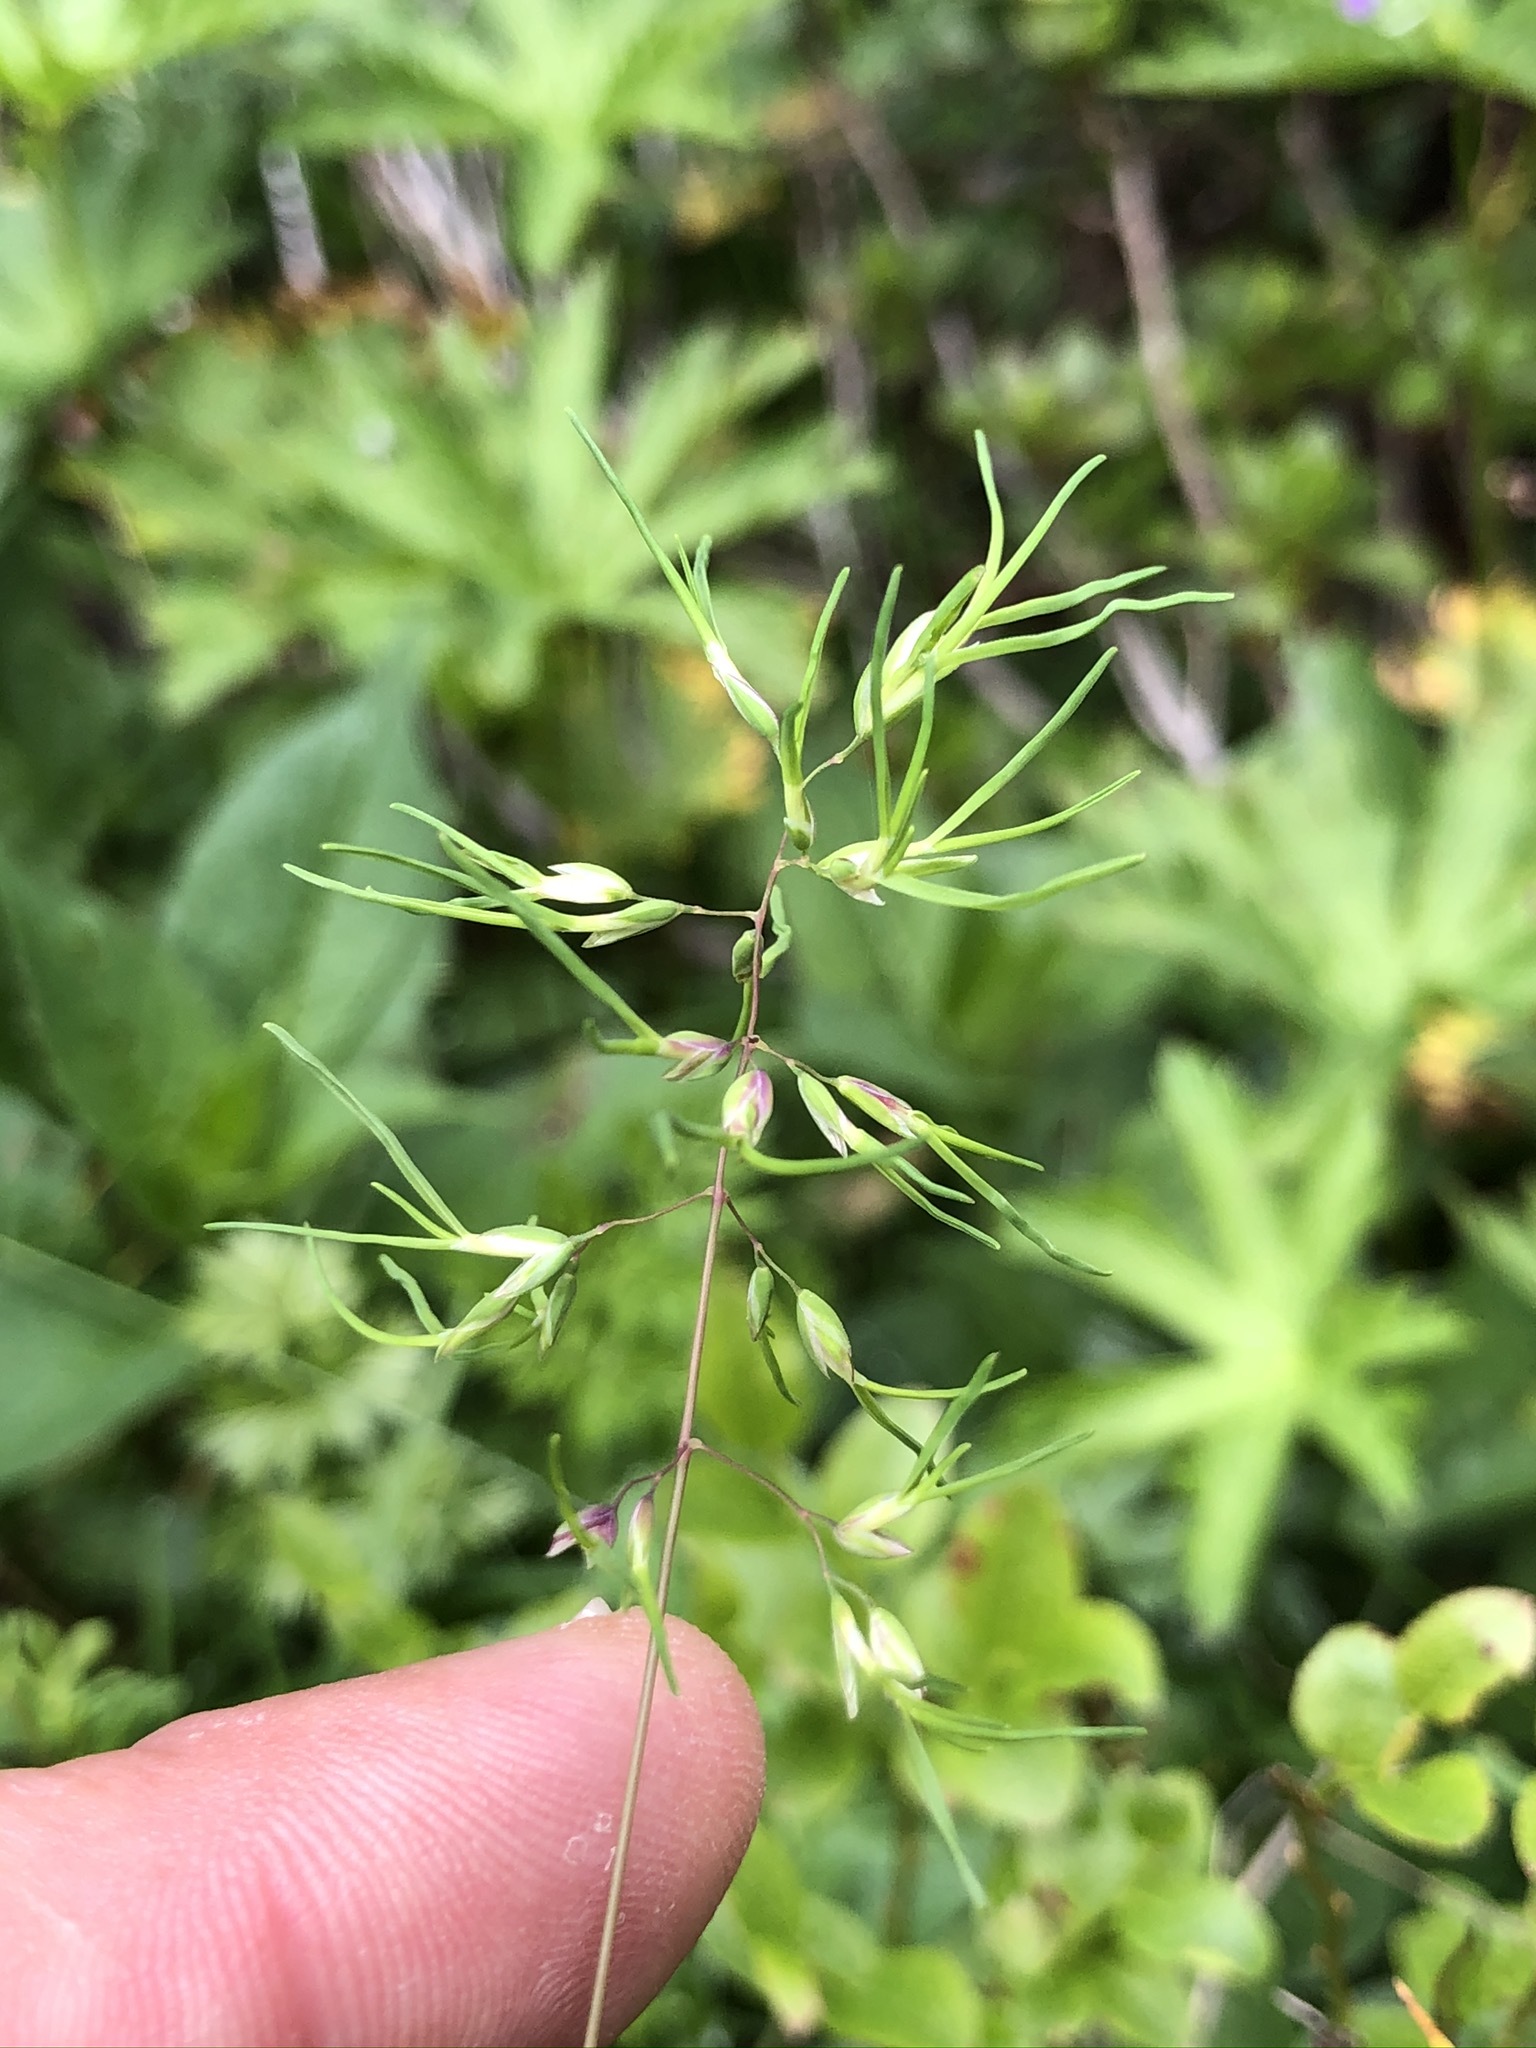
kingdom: Plantae
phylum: Tracheophyta
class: Liliopsida
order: Poales
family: Poaceae
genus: Poa
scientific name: Poa alpina
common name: Alpine bluegrass
